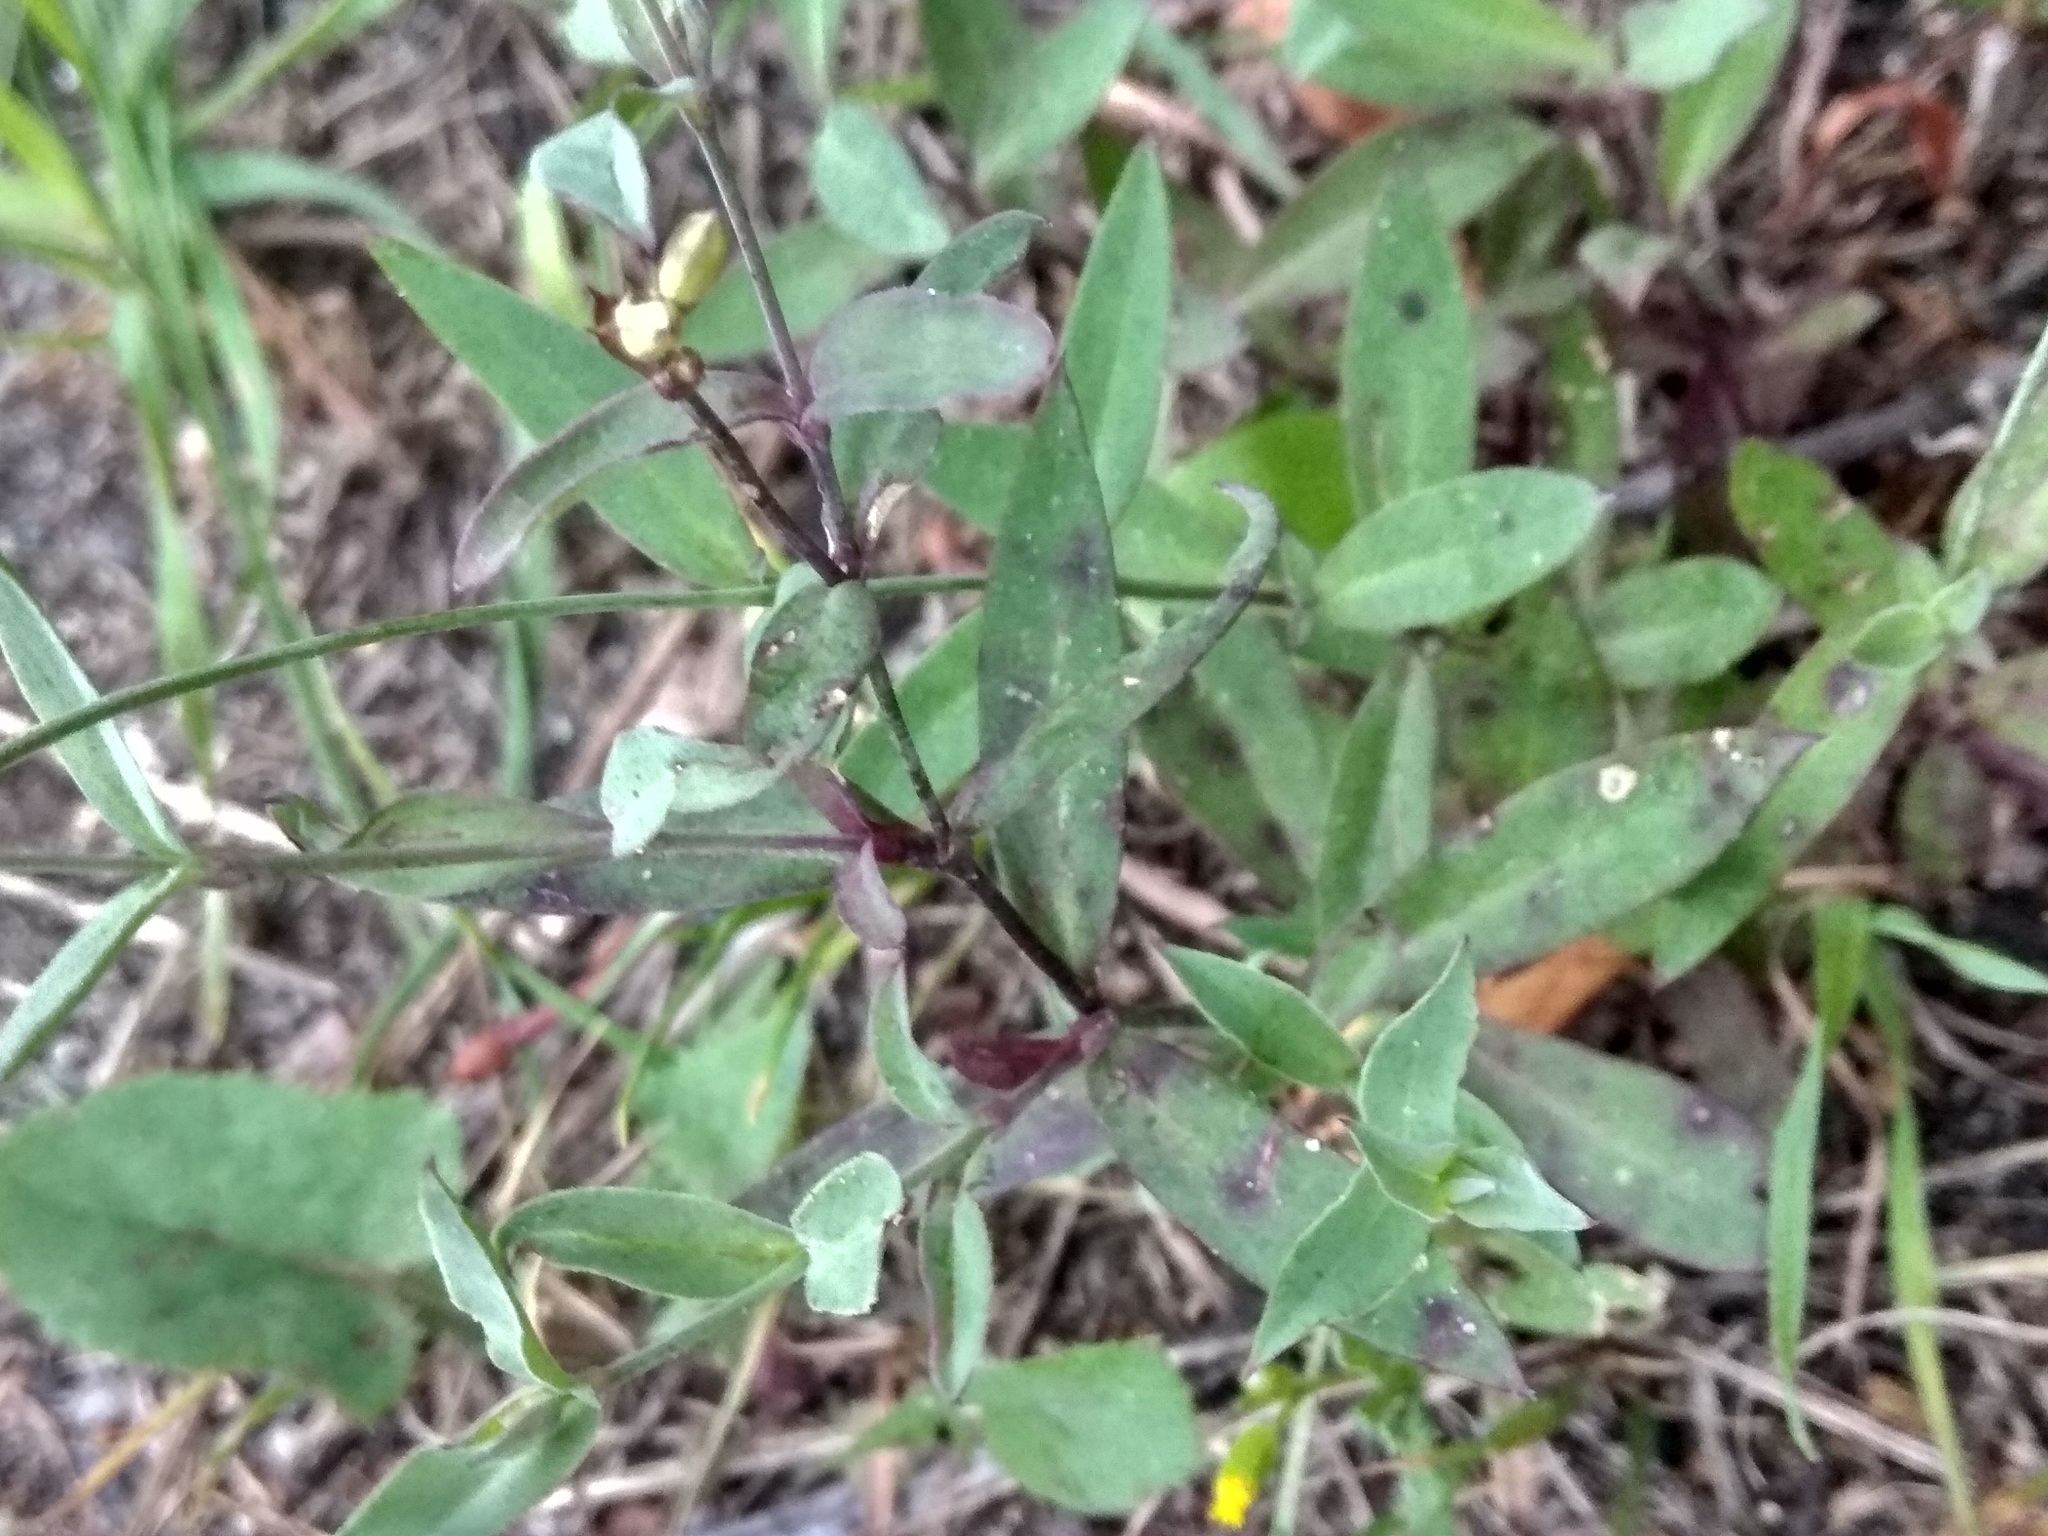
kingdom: Plantae
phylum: Tracheophyta
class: Magnoliopsida
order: Caryophyllales
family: Caryophyllaceae
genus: Silene
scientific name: Silene vulgaris
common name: Bladder campion
